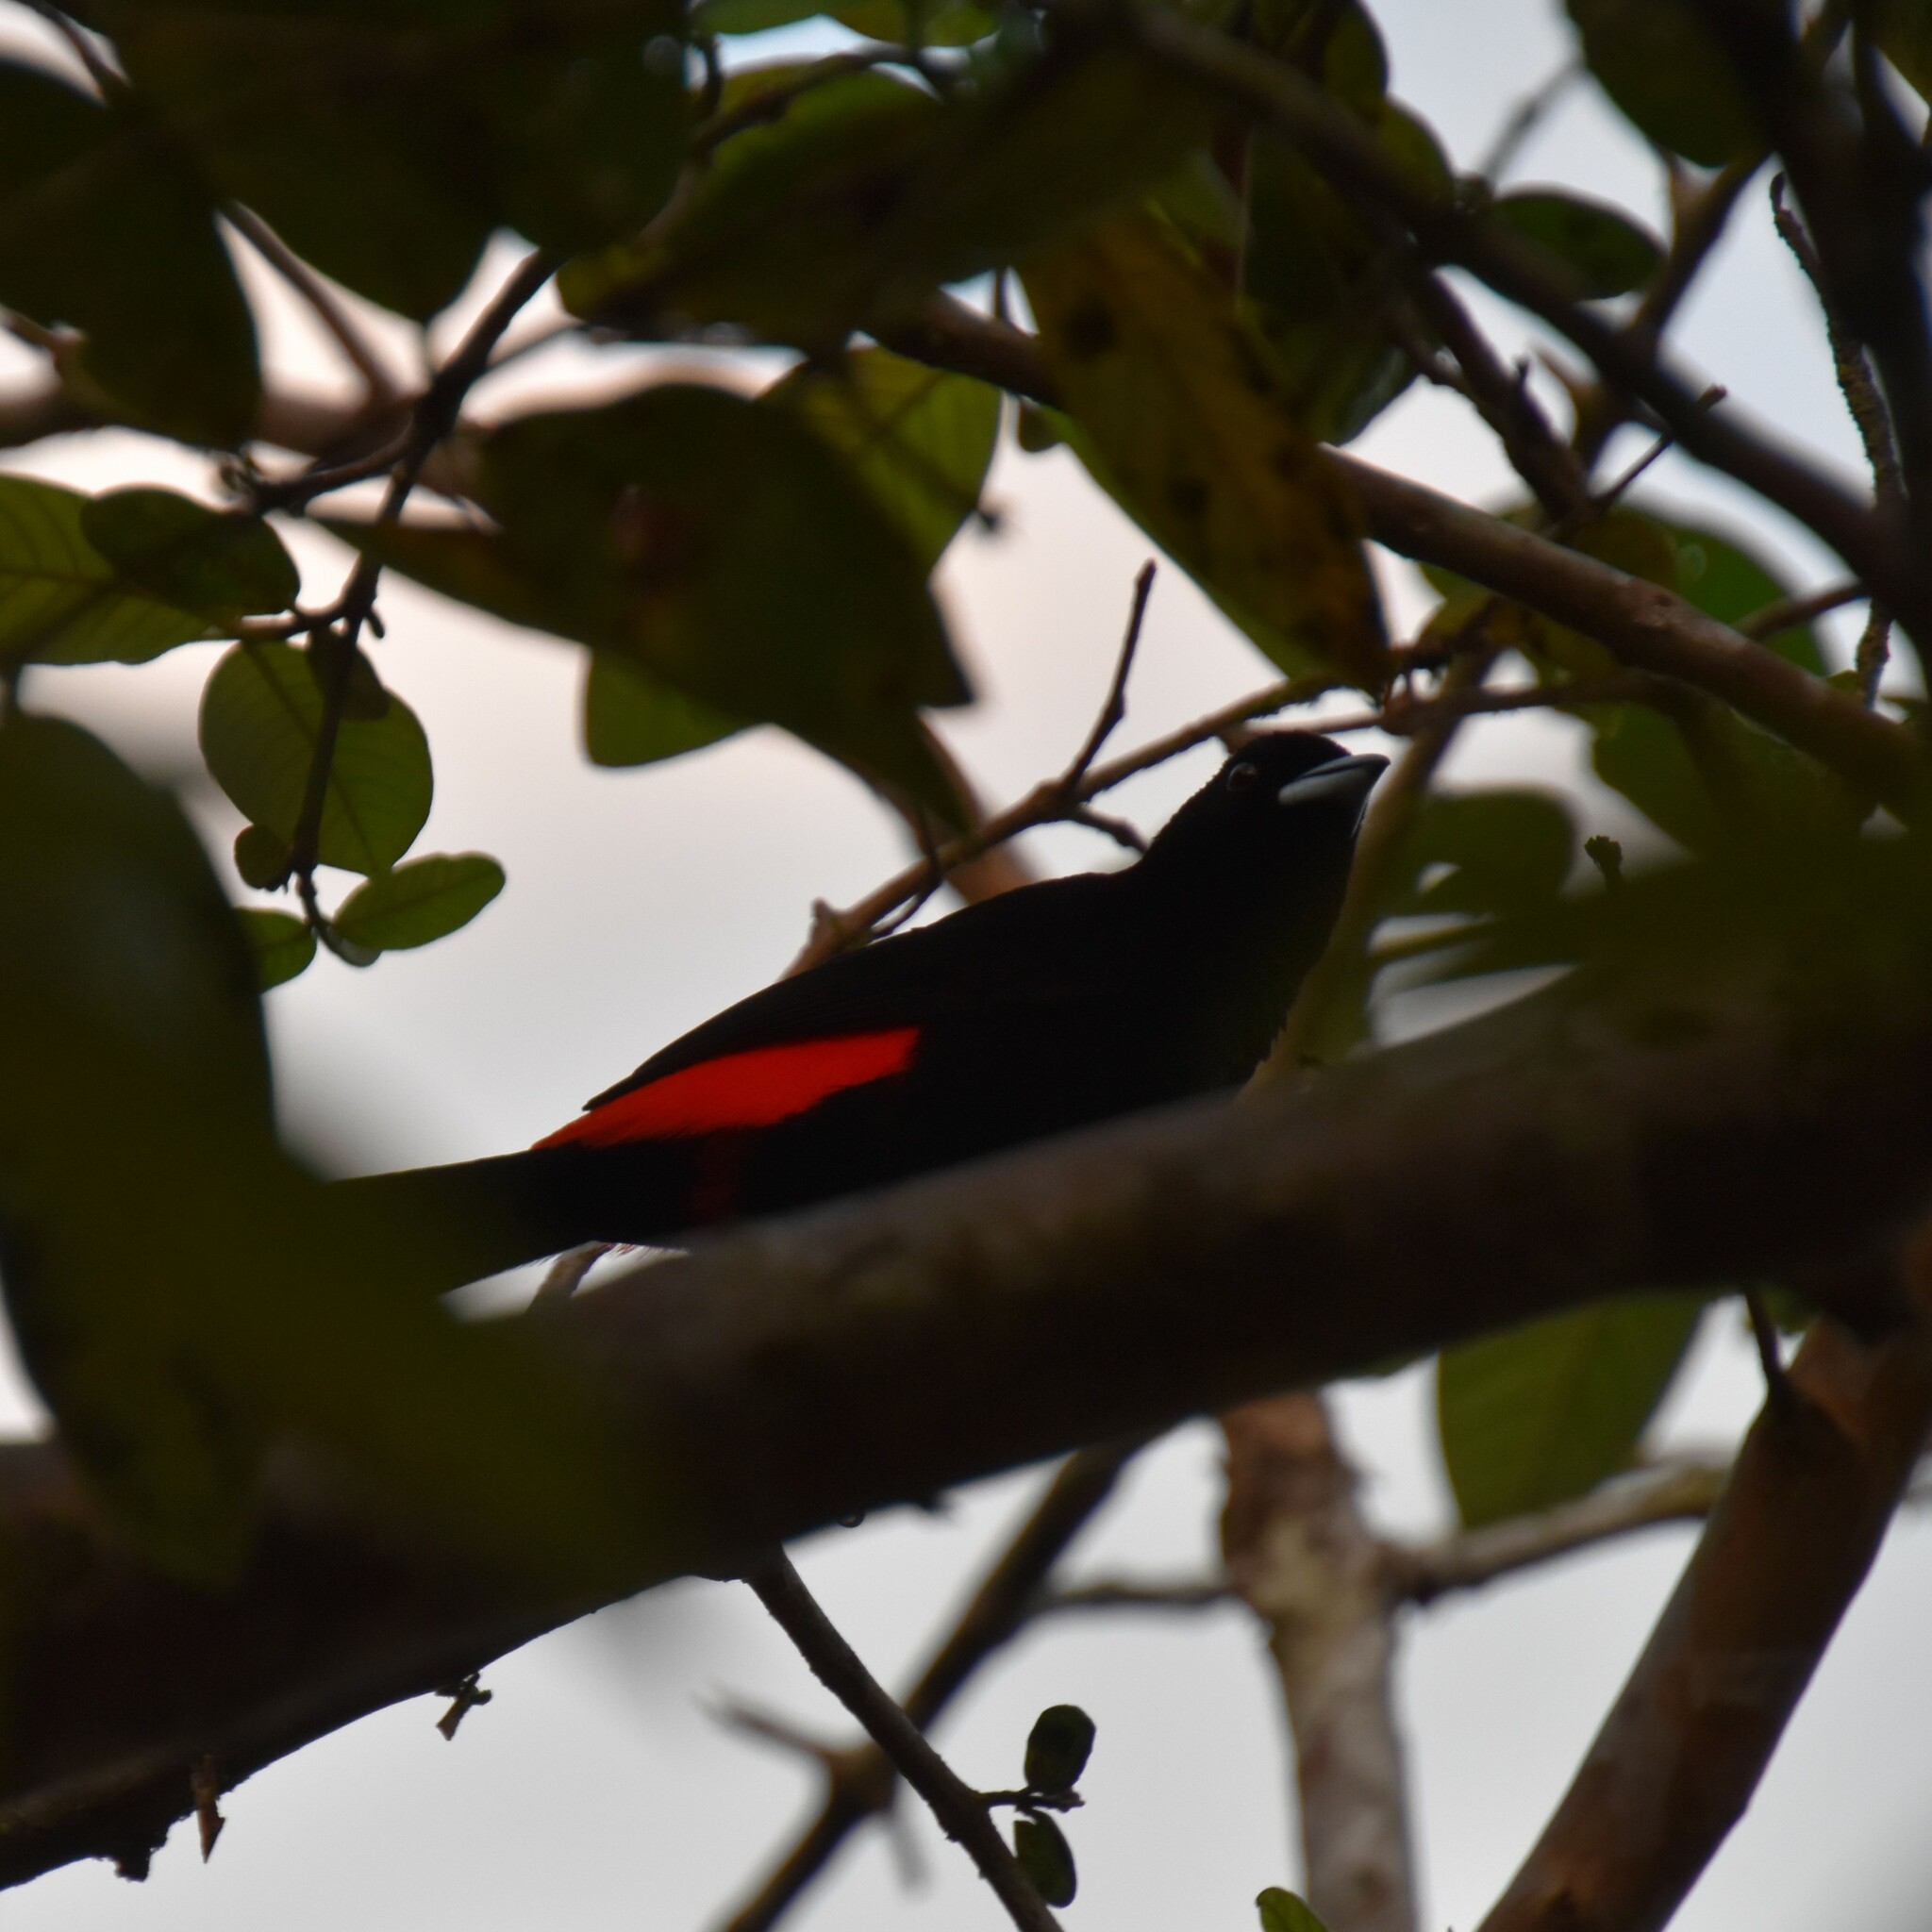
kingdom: Animalia
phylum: Chordata
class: Aves
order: Passeriformes
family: Thraupidae
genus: Ramphocelus
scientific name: Ramphocelus passerinii
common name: Passerini's tanager
